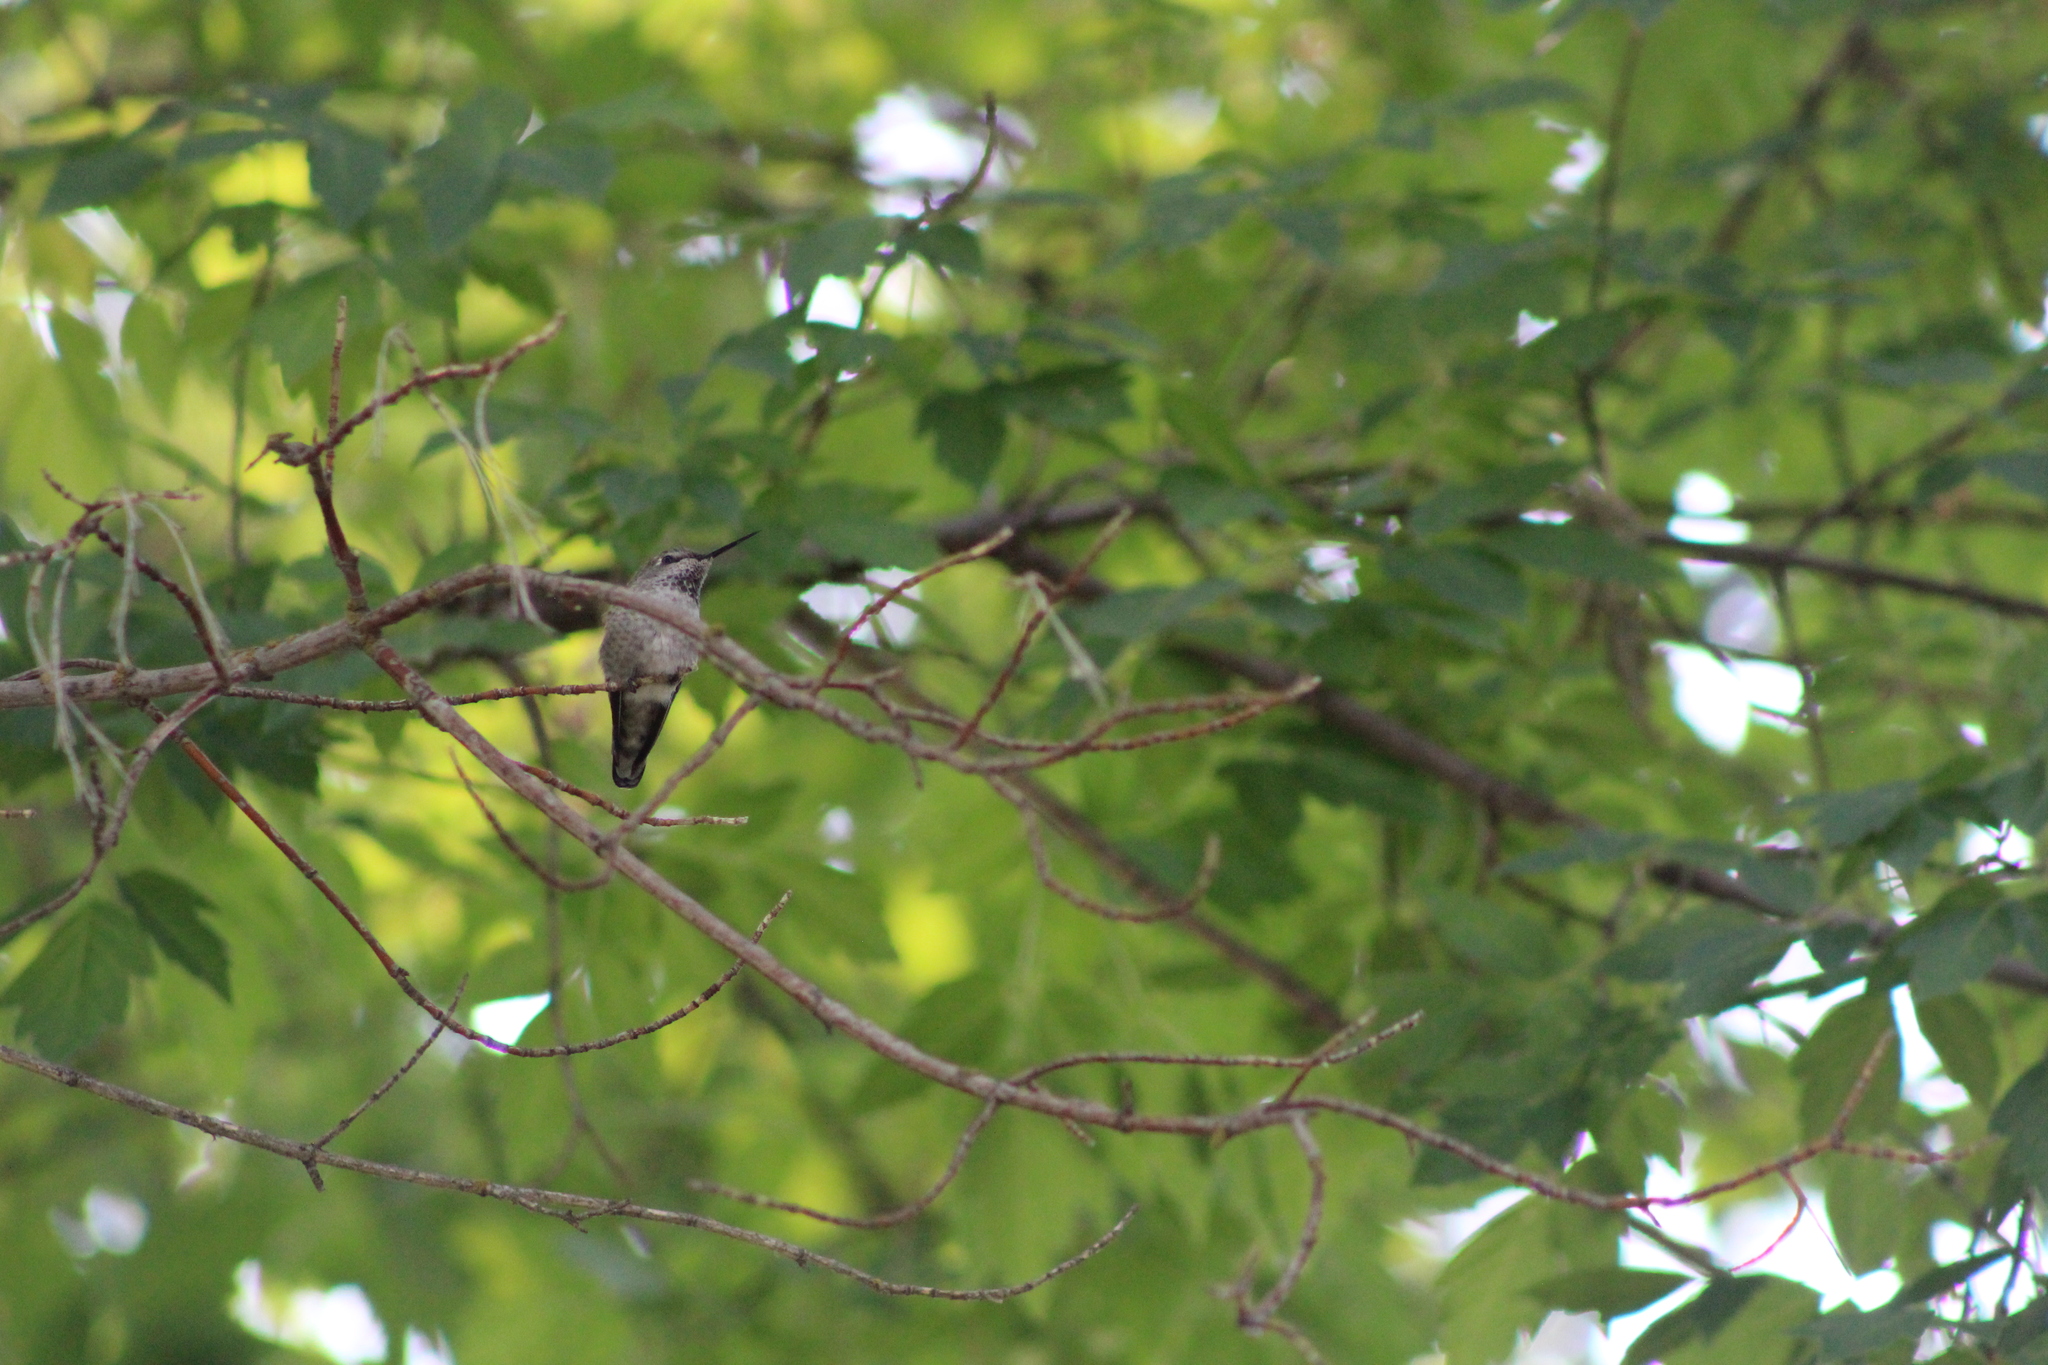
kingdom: Animalia
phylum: Chordata
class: Aves
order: Apodiformes
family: Trochilidae
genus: Calypte
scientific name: Calypte anna
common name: Anna's hummingbird
